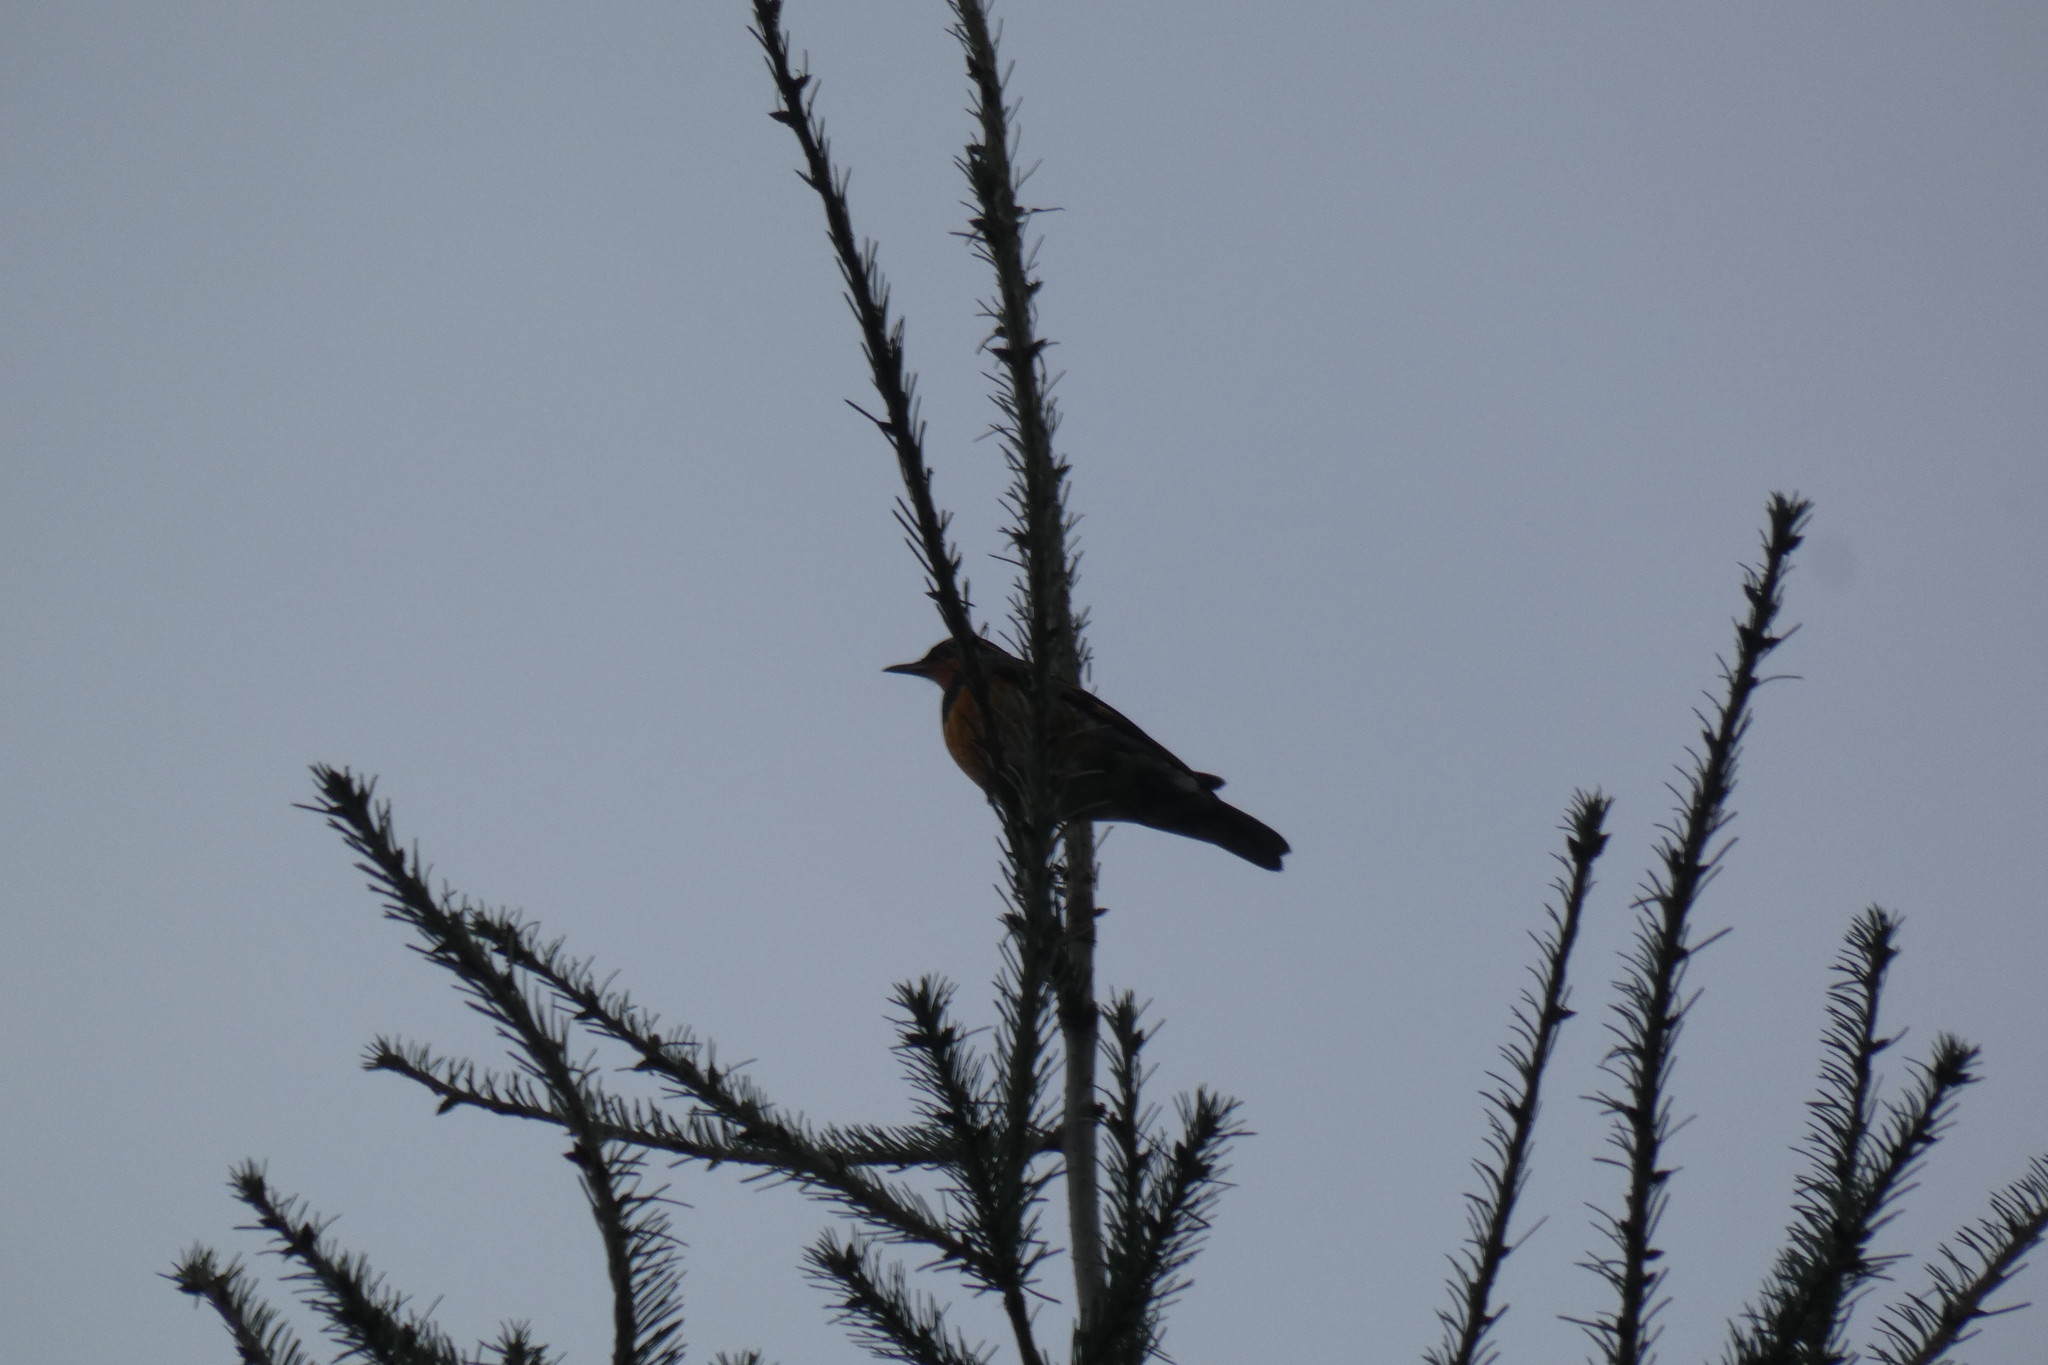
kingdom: Animalia
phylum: Chordata
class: Aves
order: Passeriformes
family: Turdidae
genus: Ixoreus
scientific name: Ixoreus naevius
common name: Varied thrush
